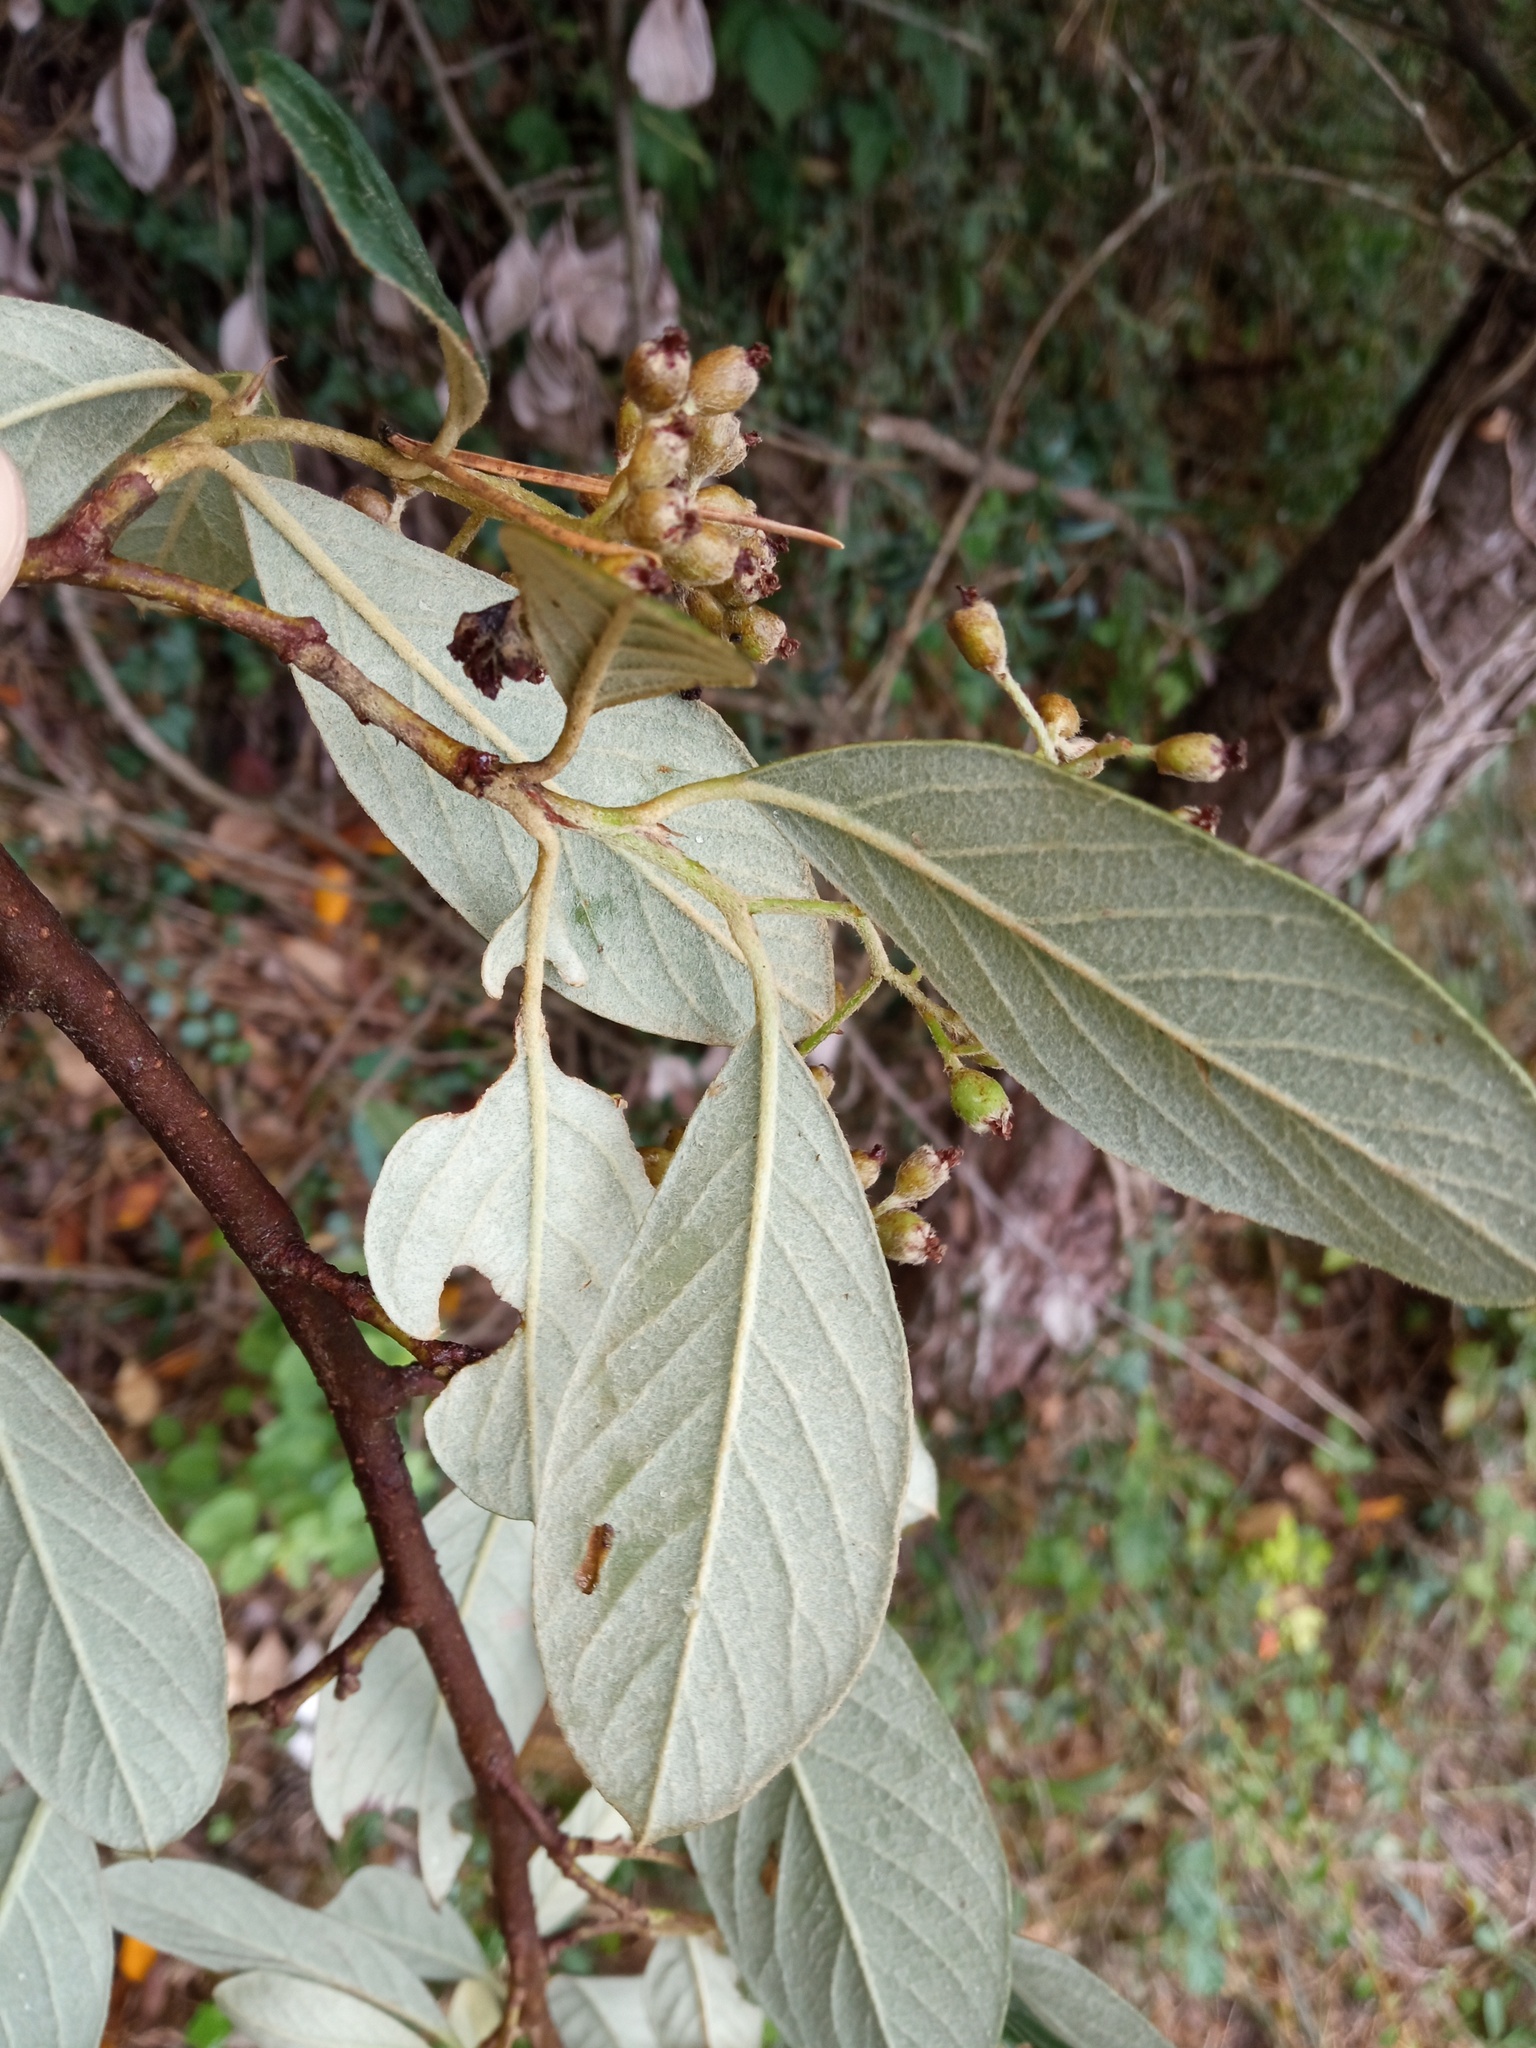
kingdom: Plantae
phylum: Tracheophyta
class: Magnoliopsida
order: Rosales
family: Rosaceae
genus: Cotoneaster
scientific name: Cotoneaster coriaceus
